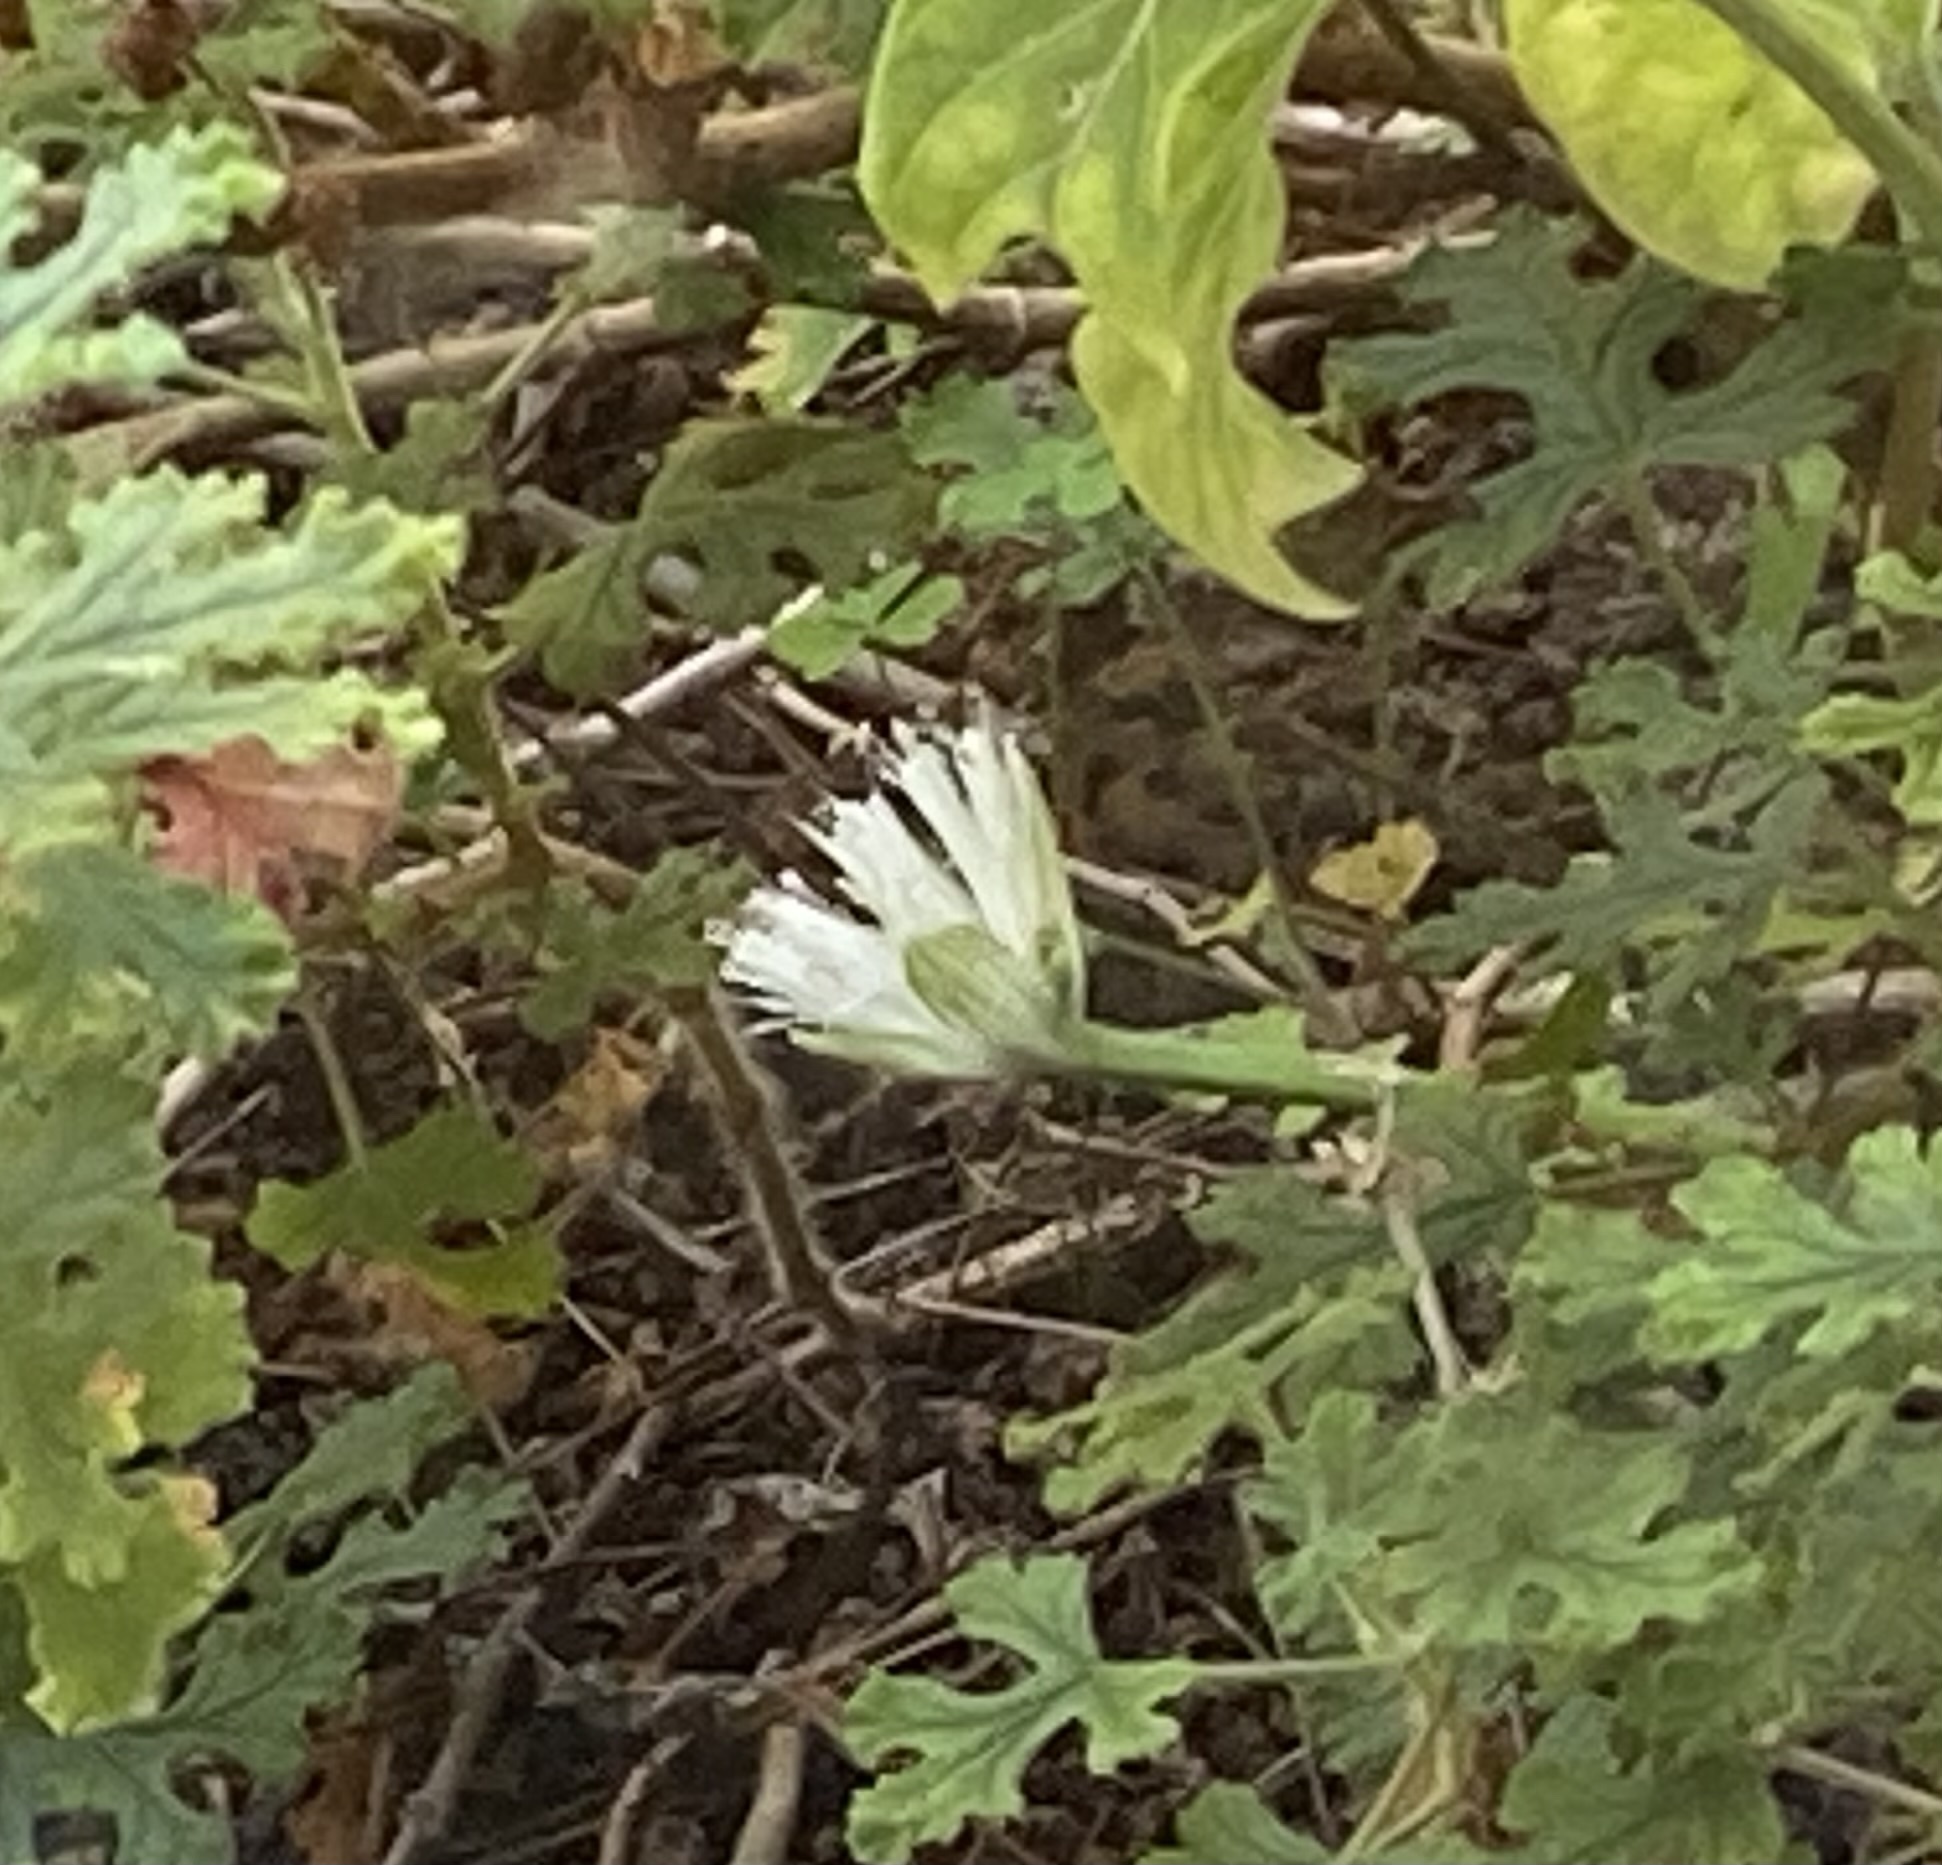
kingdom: Plantae
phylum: Tracheophyta
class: Liliopsida
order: Asparagales
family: Amaryllidaceae
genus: Haemanthus
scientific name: Haemanthus albiflos
